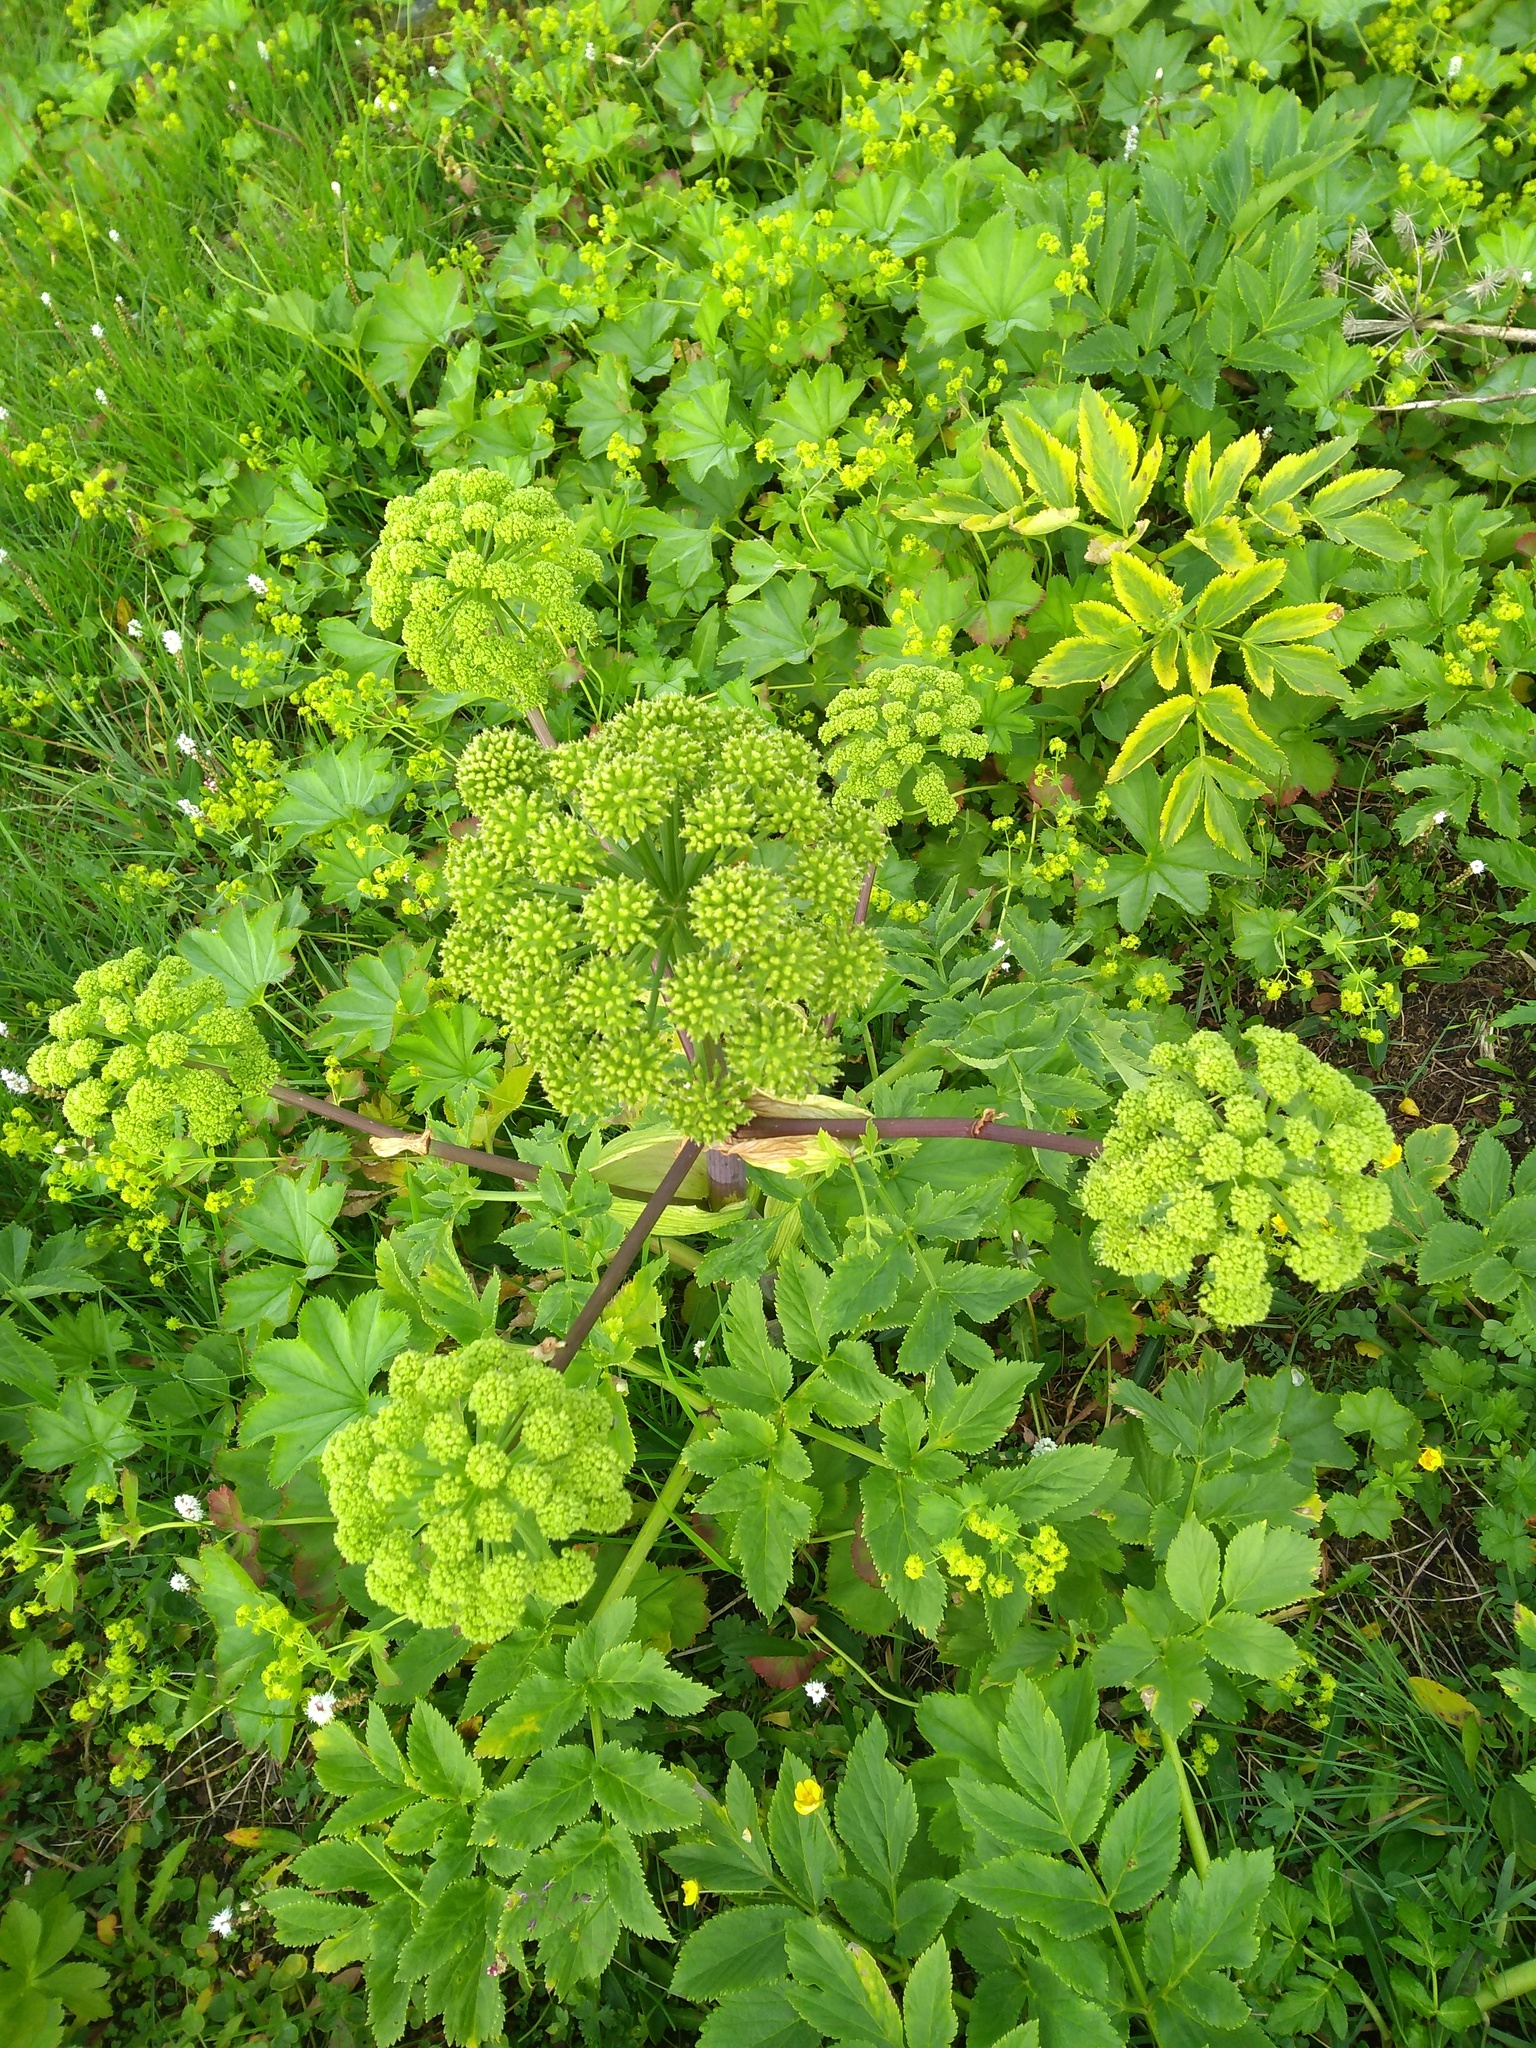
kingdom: Plantae
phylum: Tracheophyta
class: Magnoliopsida
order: Apiales
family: Apiaceae
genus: Angelica
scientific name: Angelica archangelica
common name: Garden angelica
